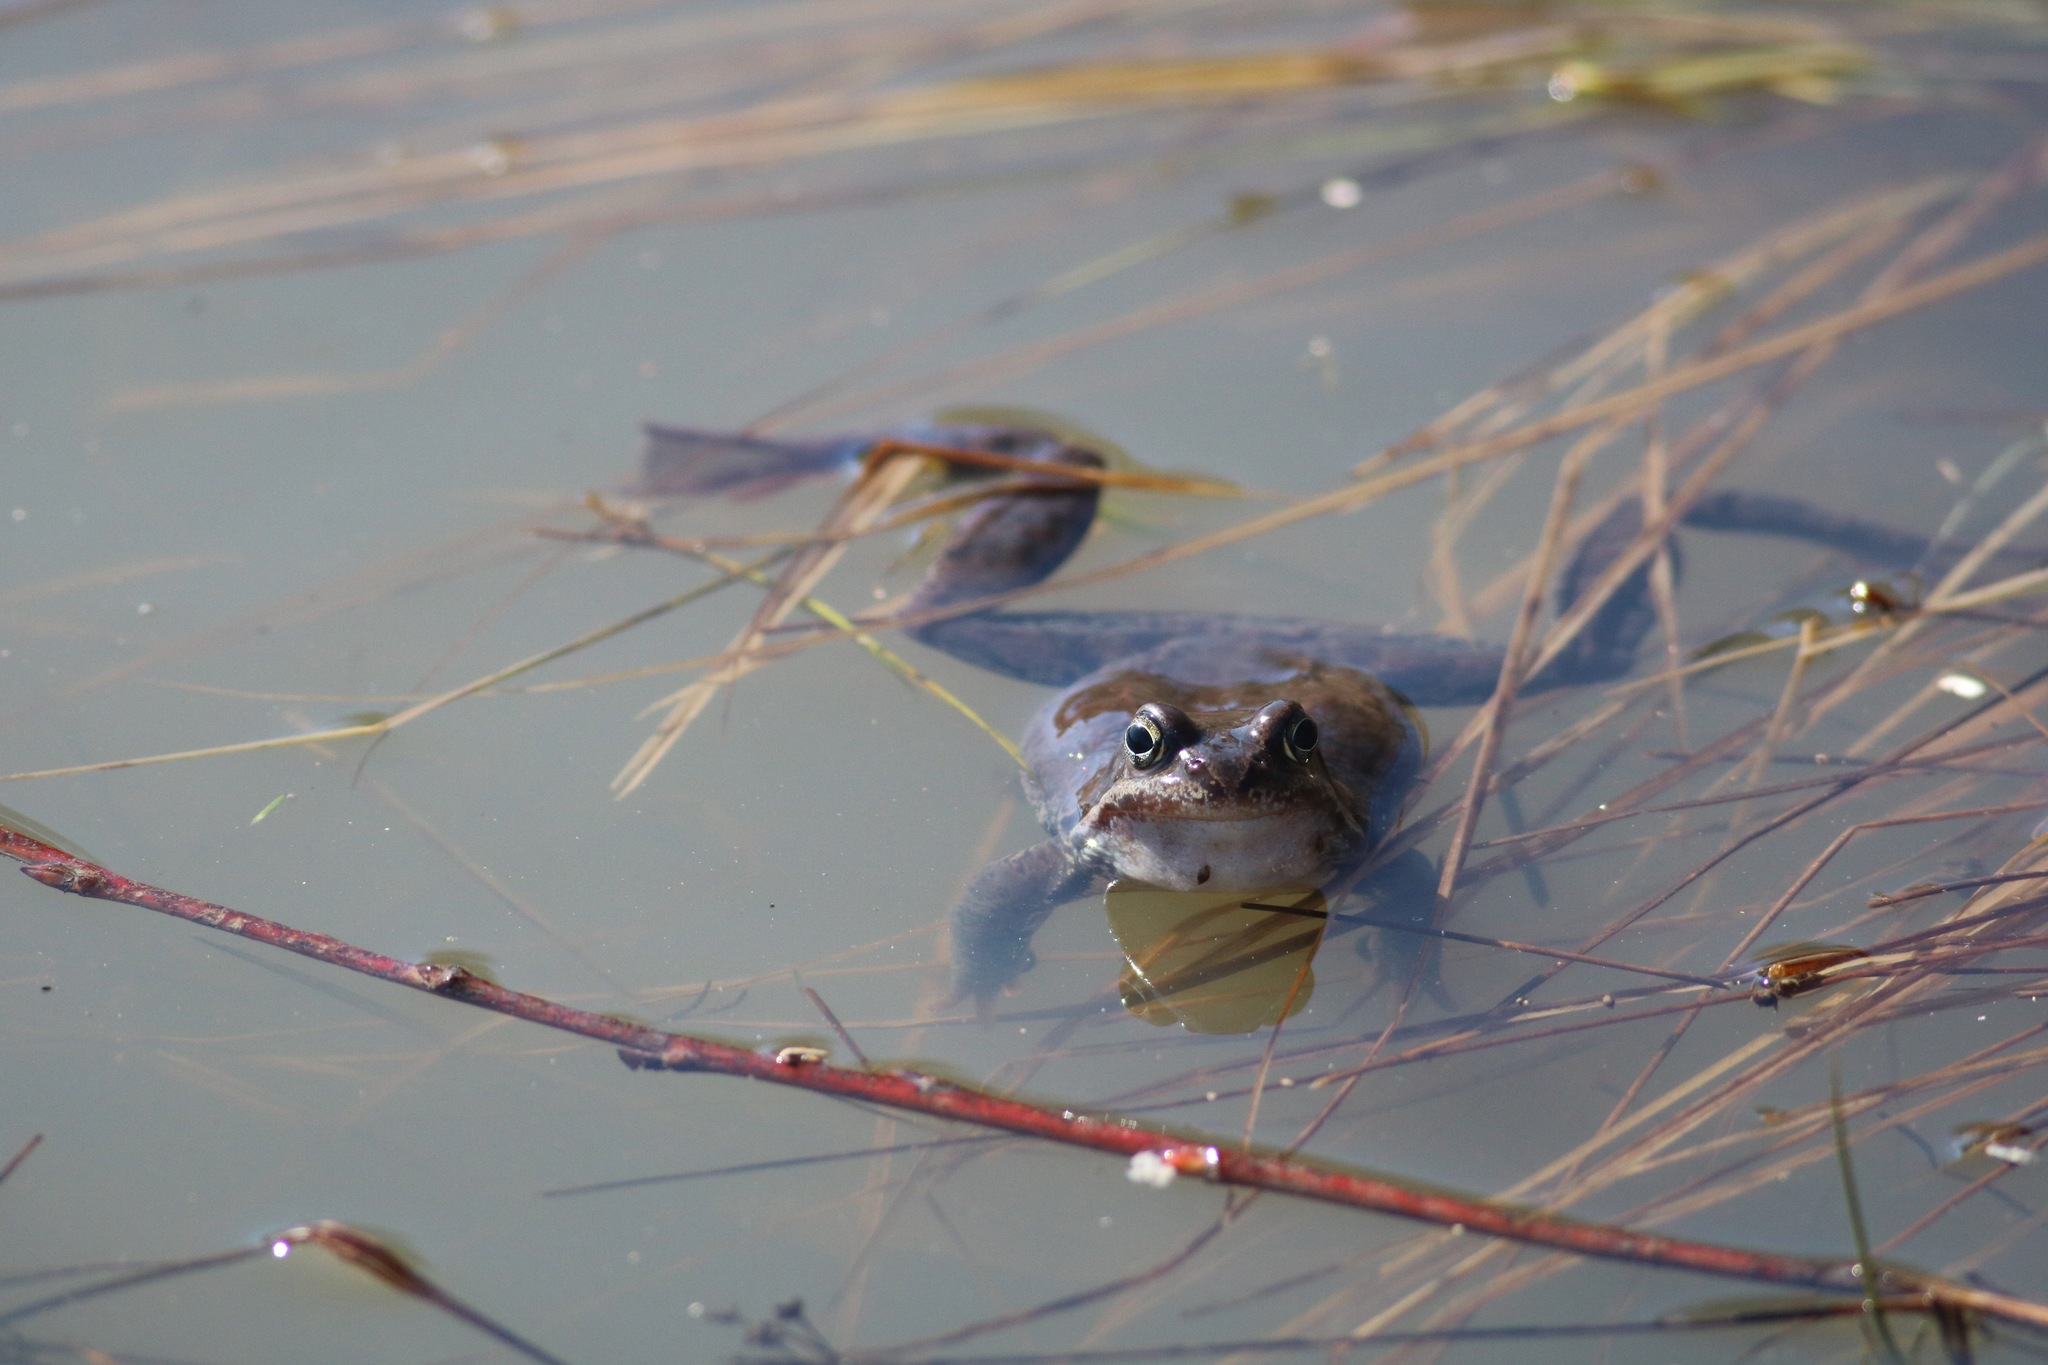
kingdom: Animalia
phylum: Chordata
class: Amphibia
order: Anura
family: Ranidae
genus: Rana
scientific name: Rana temporaria
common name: Common frog
